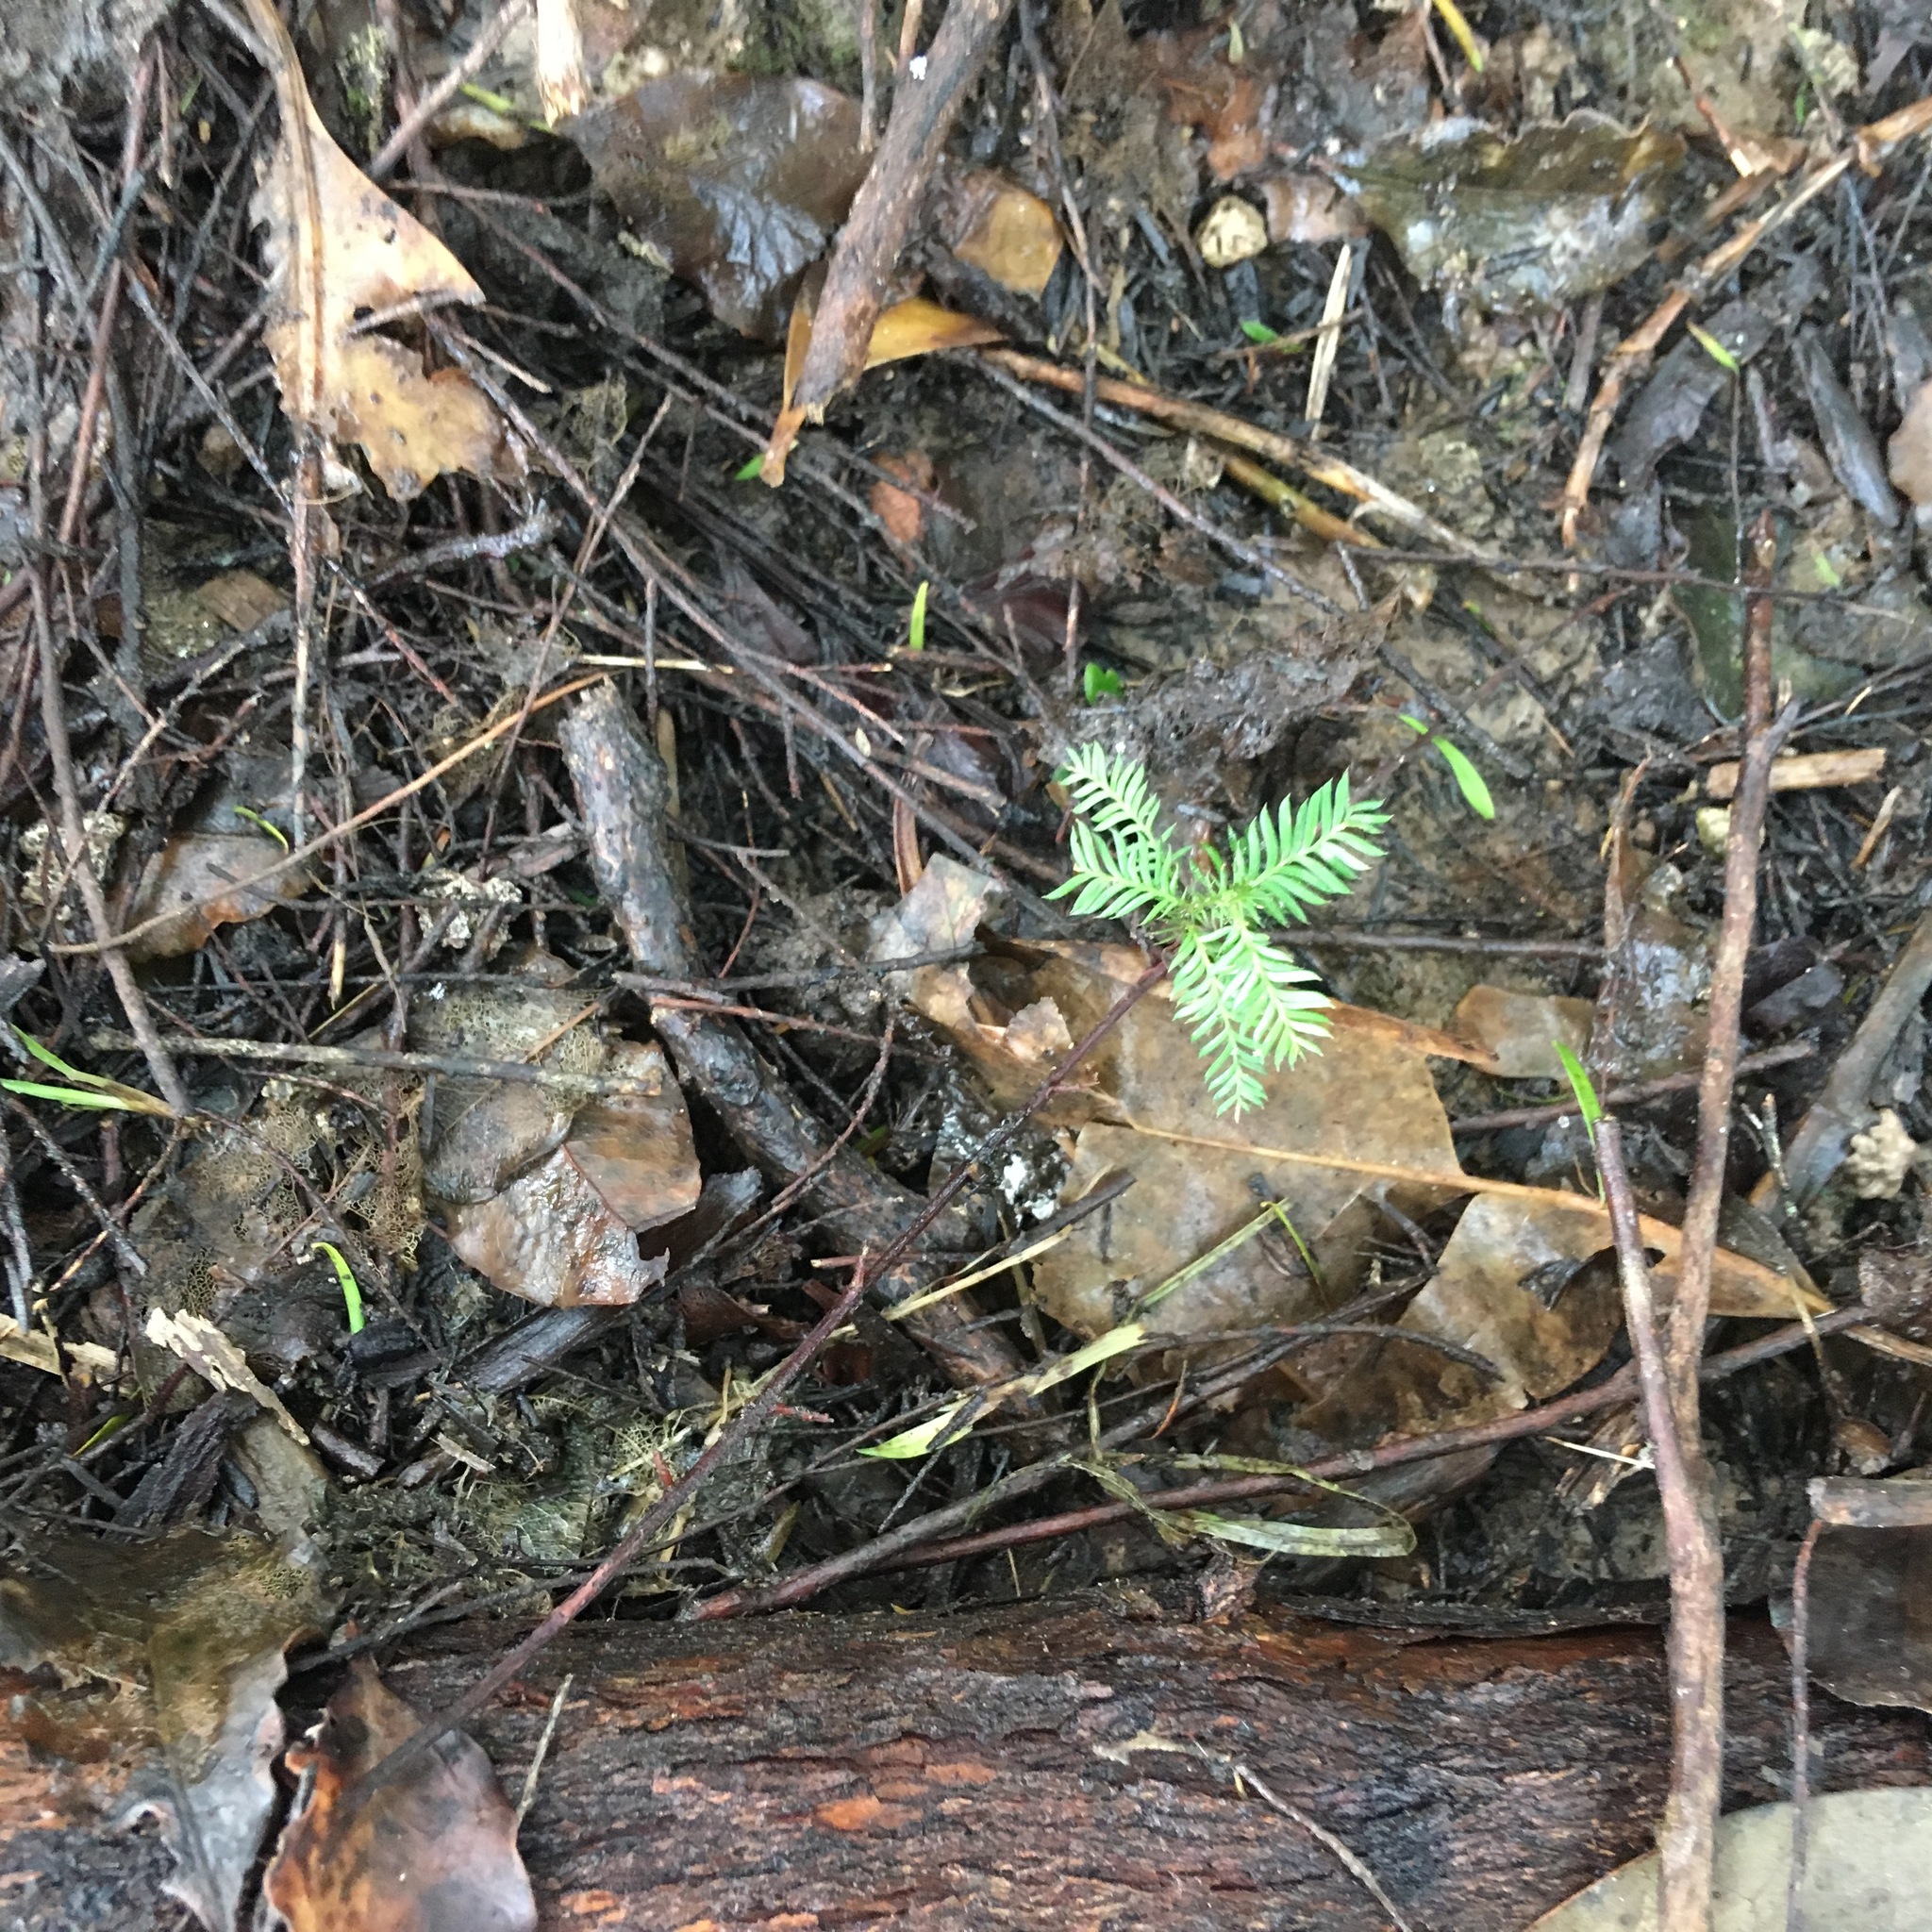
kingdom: Plantae
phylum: Tracheophyta
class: Pinopsida
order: Pinales
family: Podocarpaceae
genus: Dacrycarpus
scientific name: Dacrycarpus dacrydioides
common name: White pine
